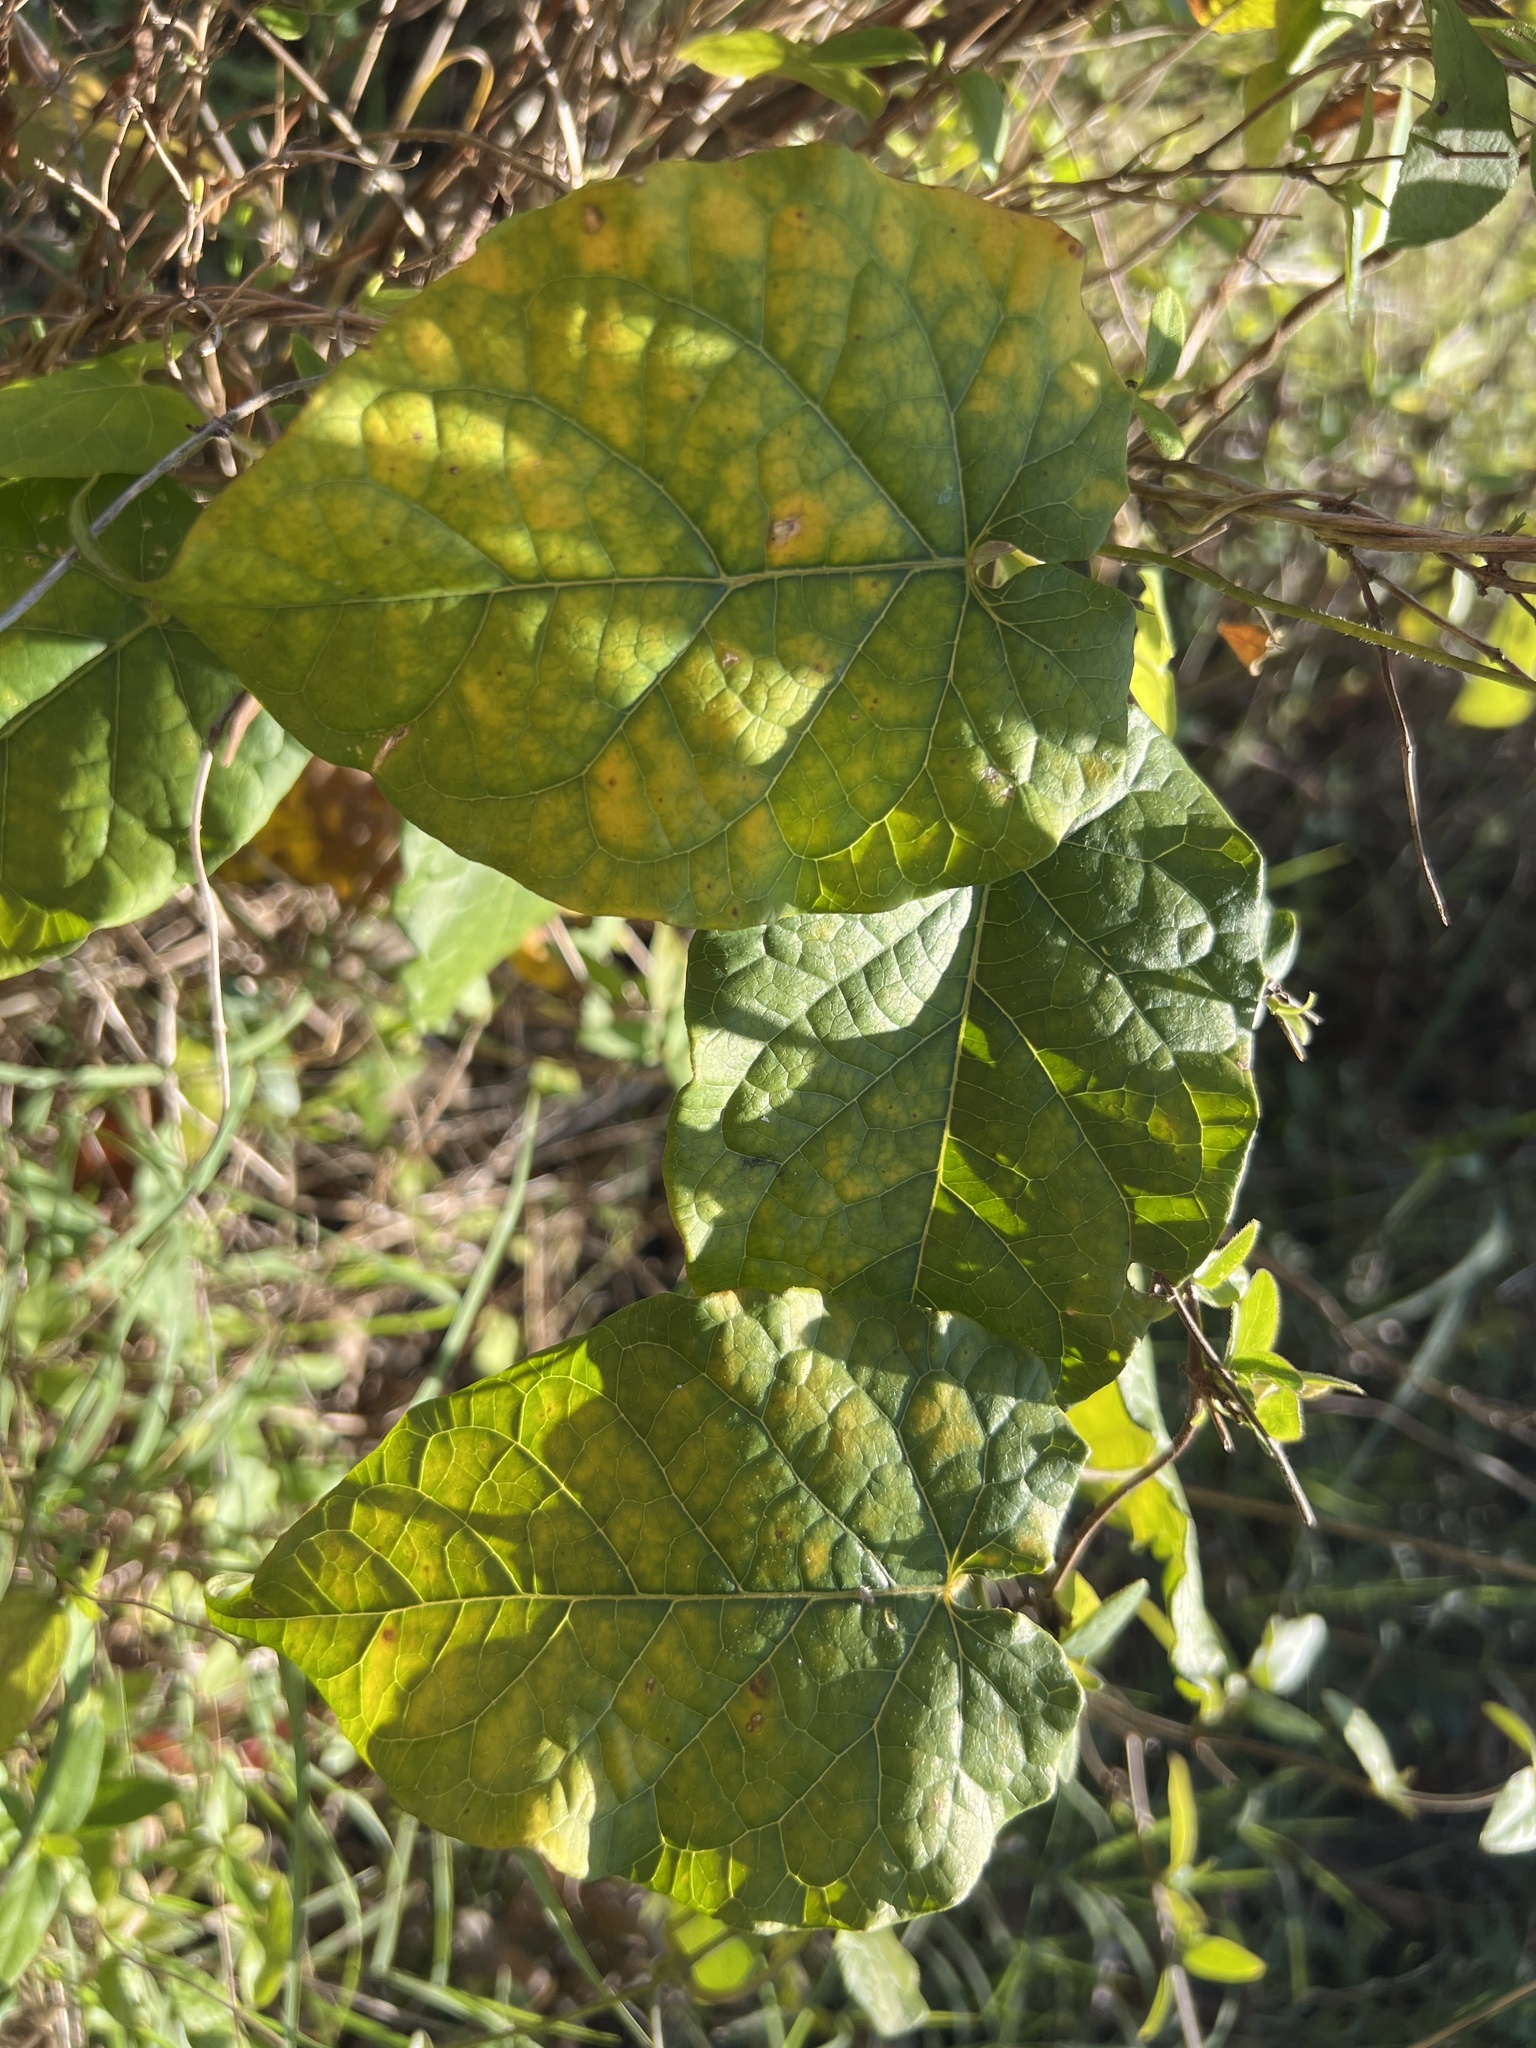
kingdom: Plantae
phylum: Tracheophyta
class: Magnoliopsida
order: Gentianales
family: Apocynaceae
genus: Gonolobus
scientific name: Gonolobus suberosus
